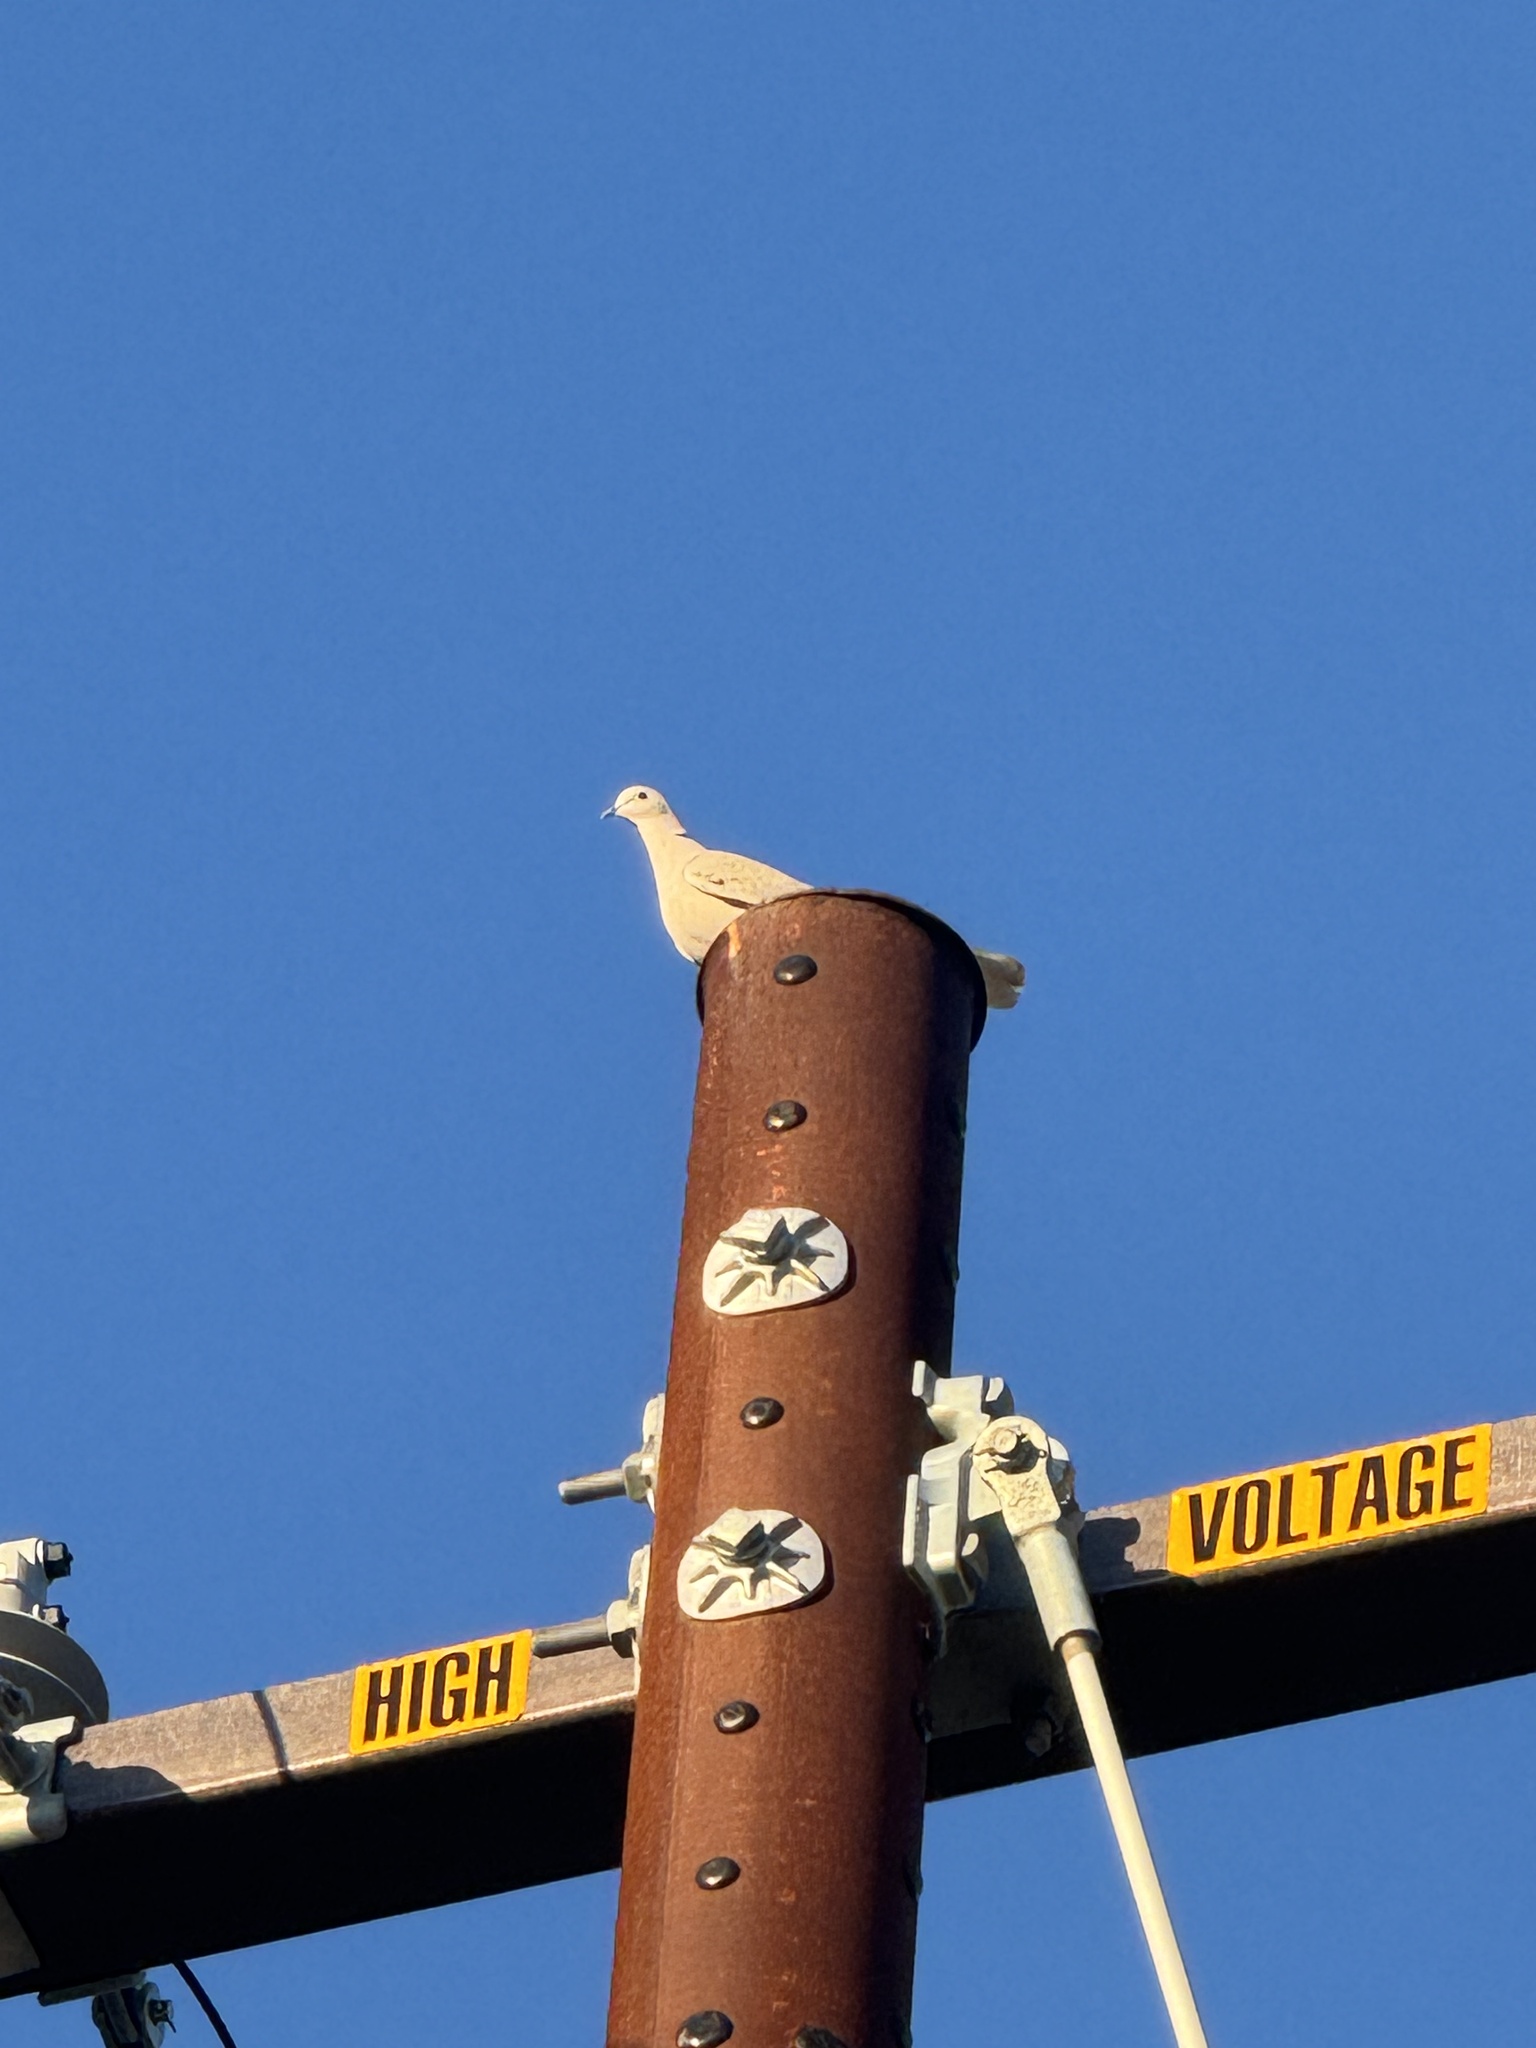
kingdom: Animalia
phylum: Chordata
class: Aves
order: Columbiformes
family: Columbidae
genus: Streptopelia
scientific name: Streptopelia decaocto
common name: Eurasian collared dove
